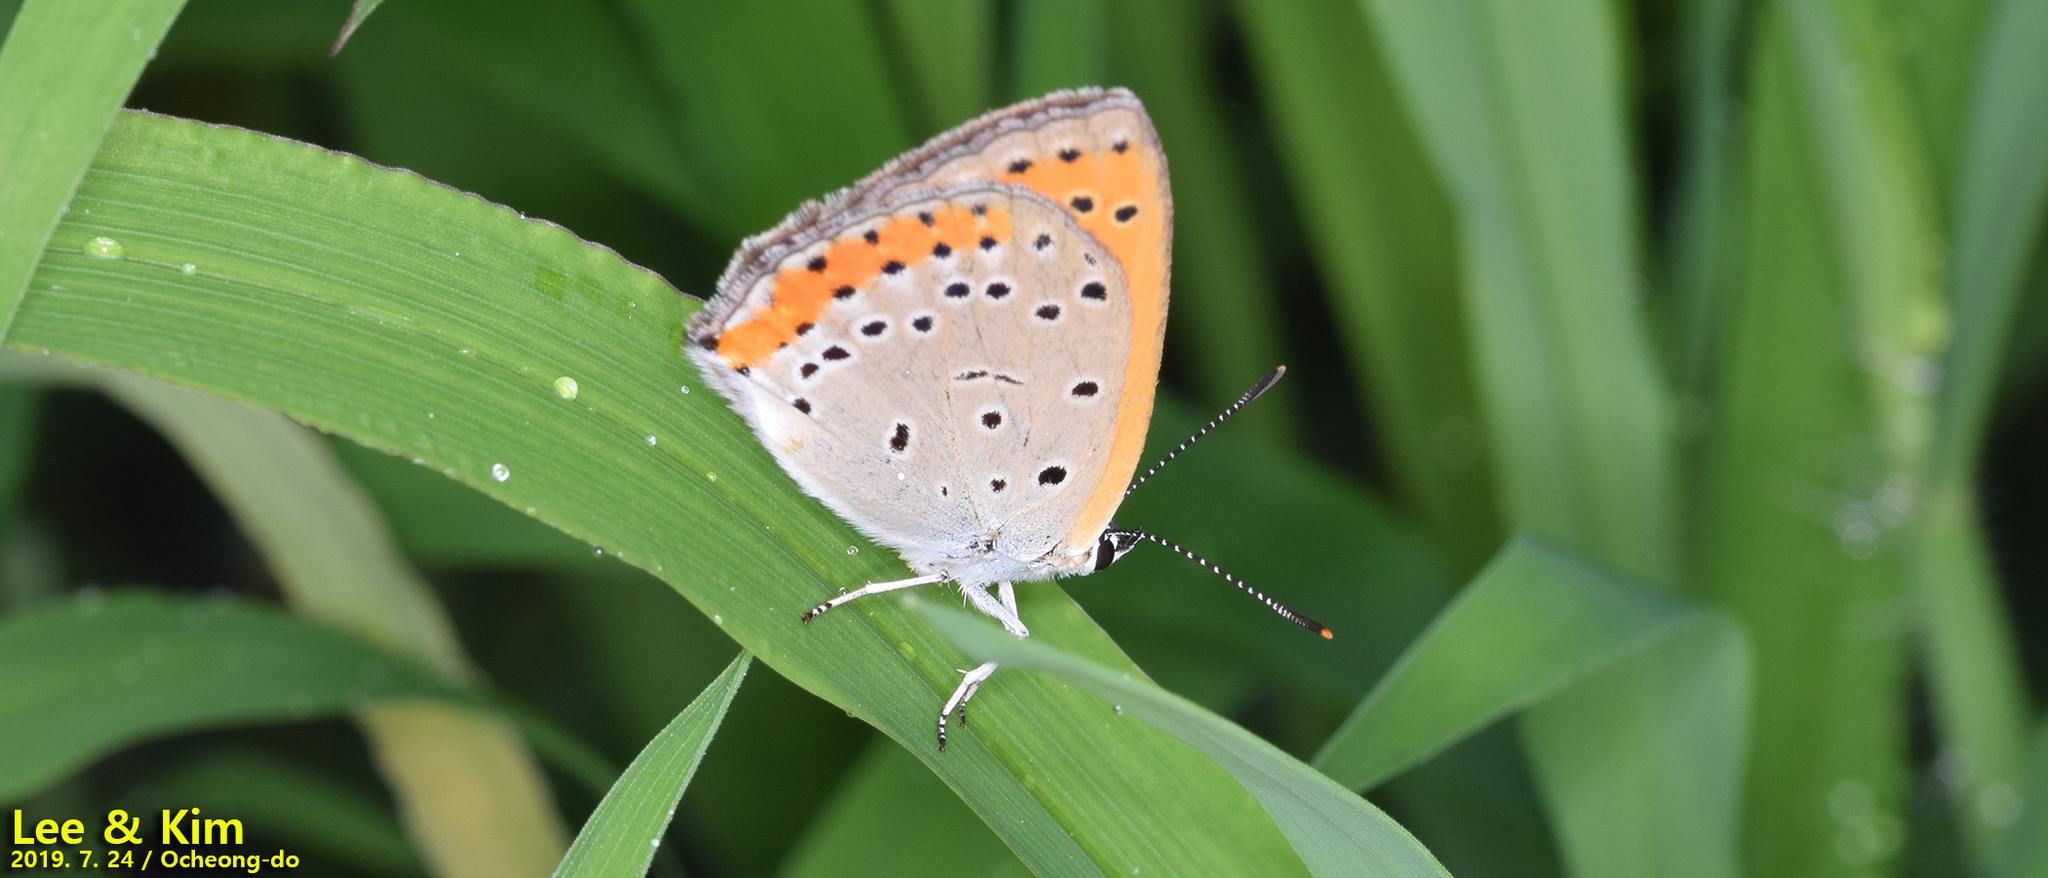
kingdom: Animalia
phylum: Arthropoda
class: Insecta
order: Lepidoptera
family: Lycaenidae
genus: Lycaena
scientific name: Lycaena dispar
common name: Large copper
